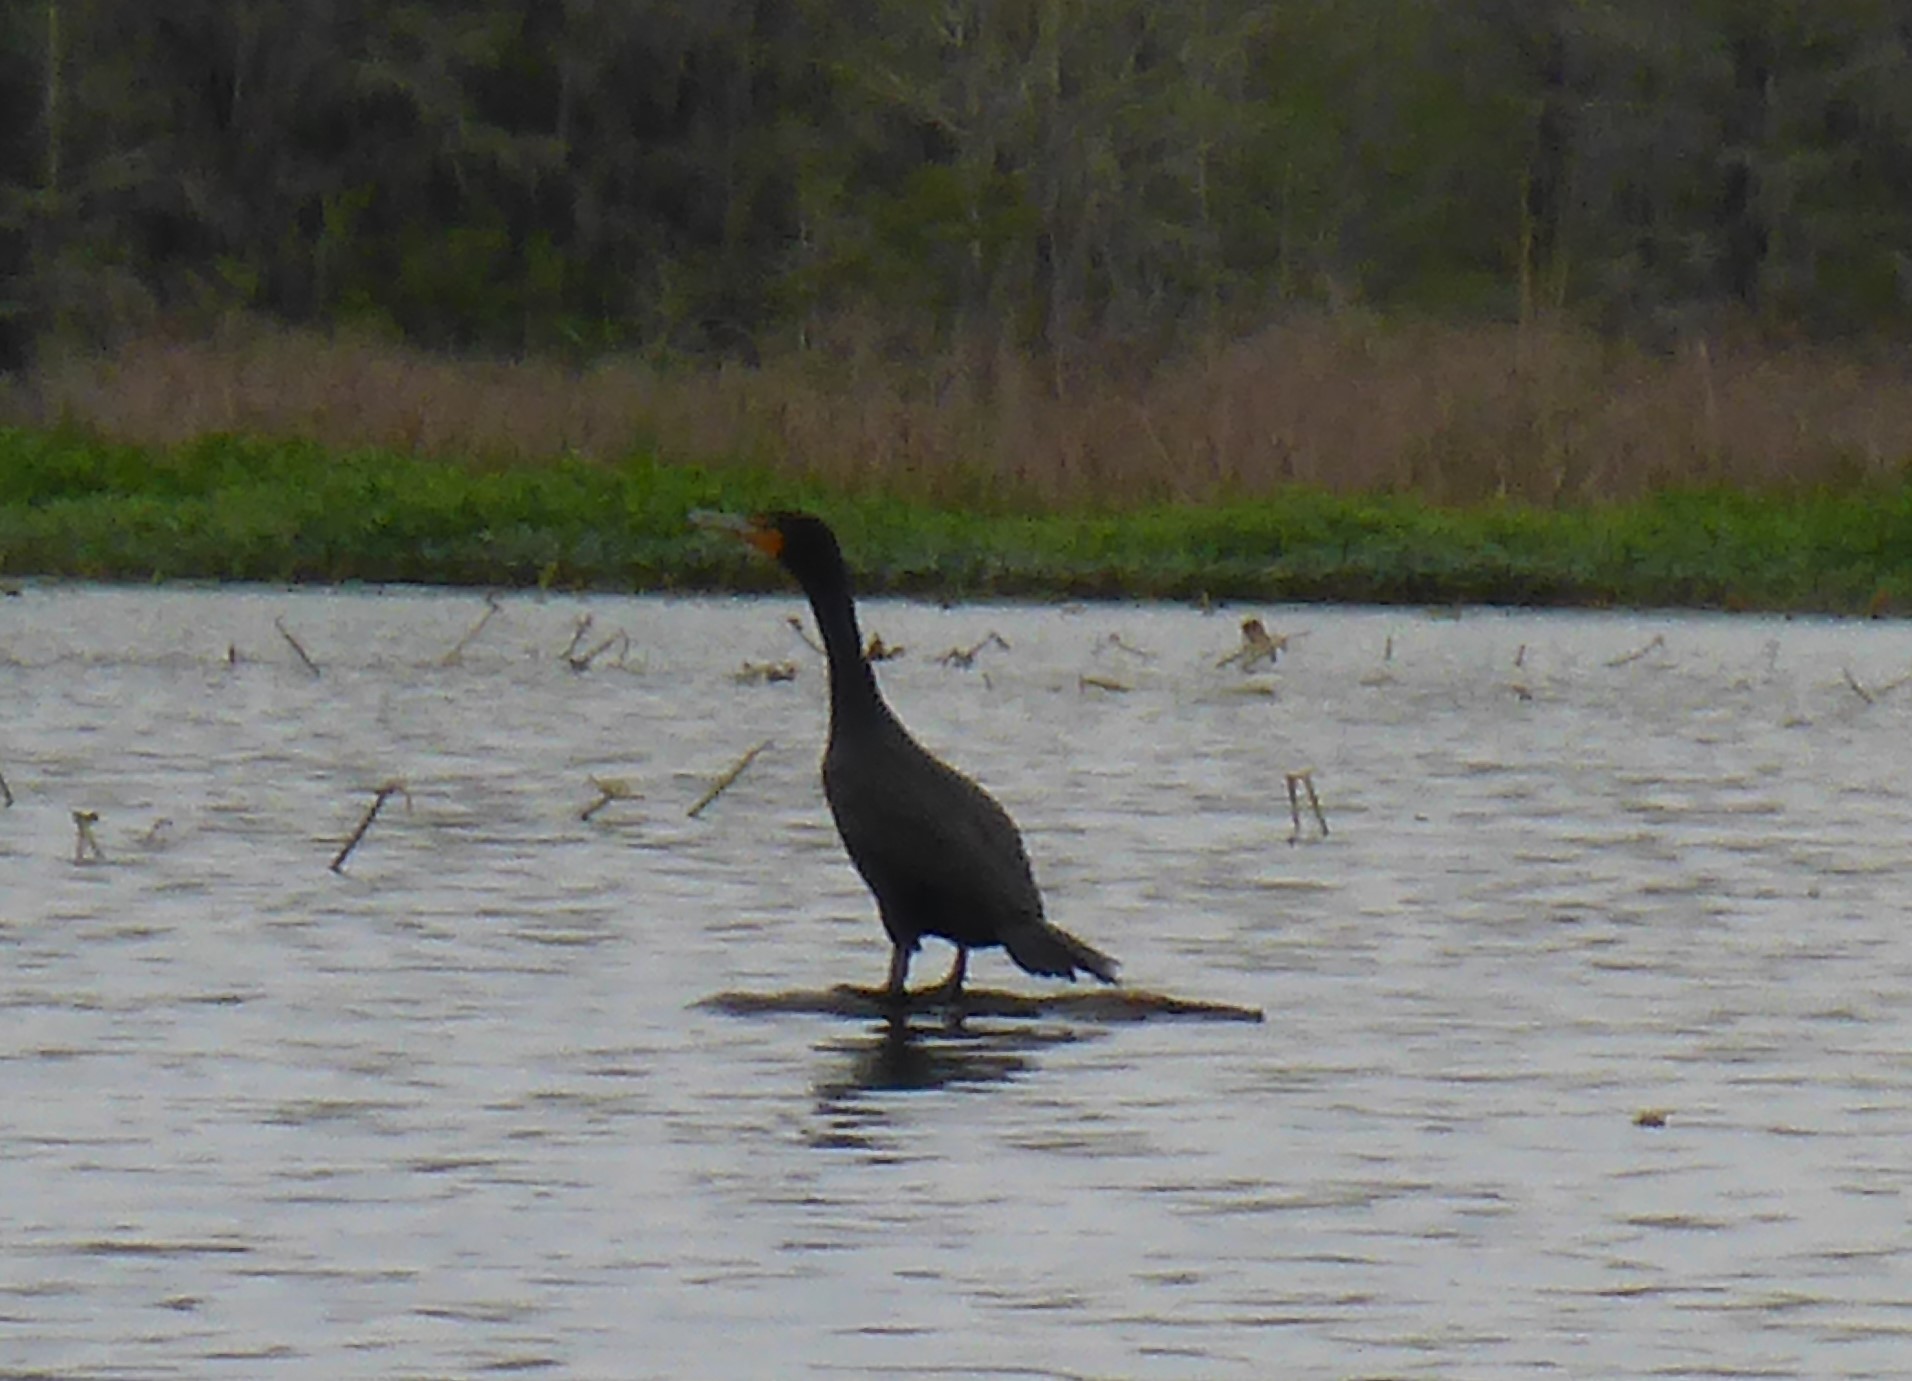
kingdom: Animalia
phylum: Chordata
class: Aves
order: Suliformes
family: Phalacrocoracidae
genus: Phalacrocorax
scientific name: Phalacrocorax auritus
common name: Double-crested cormorant
